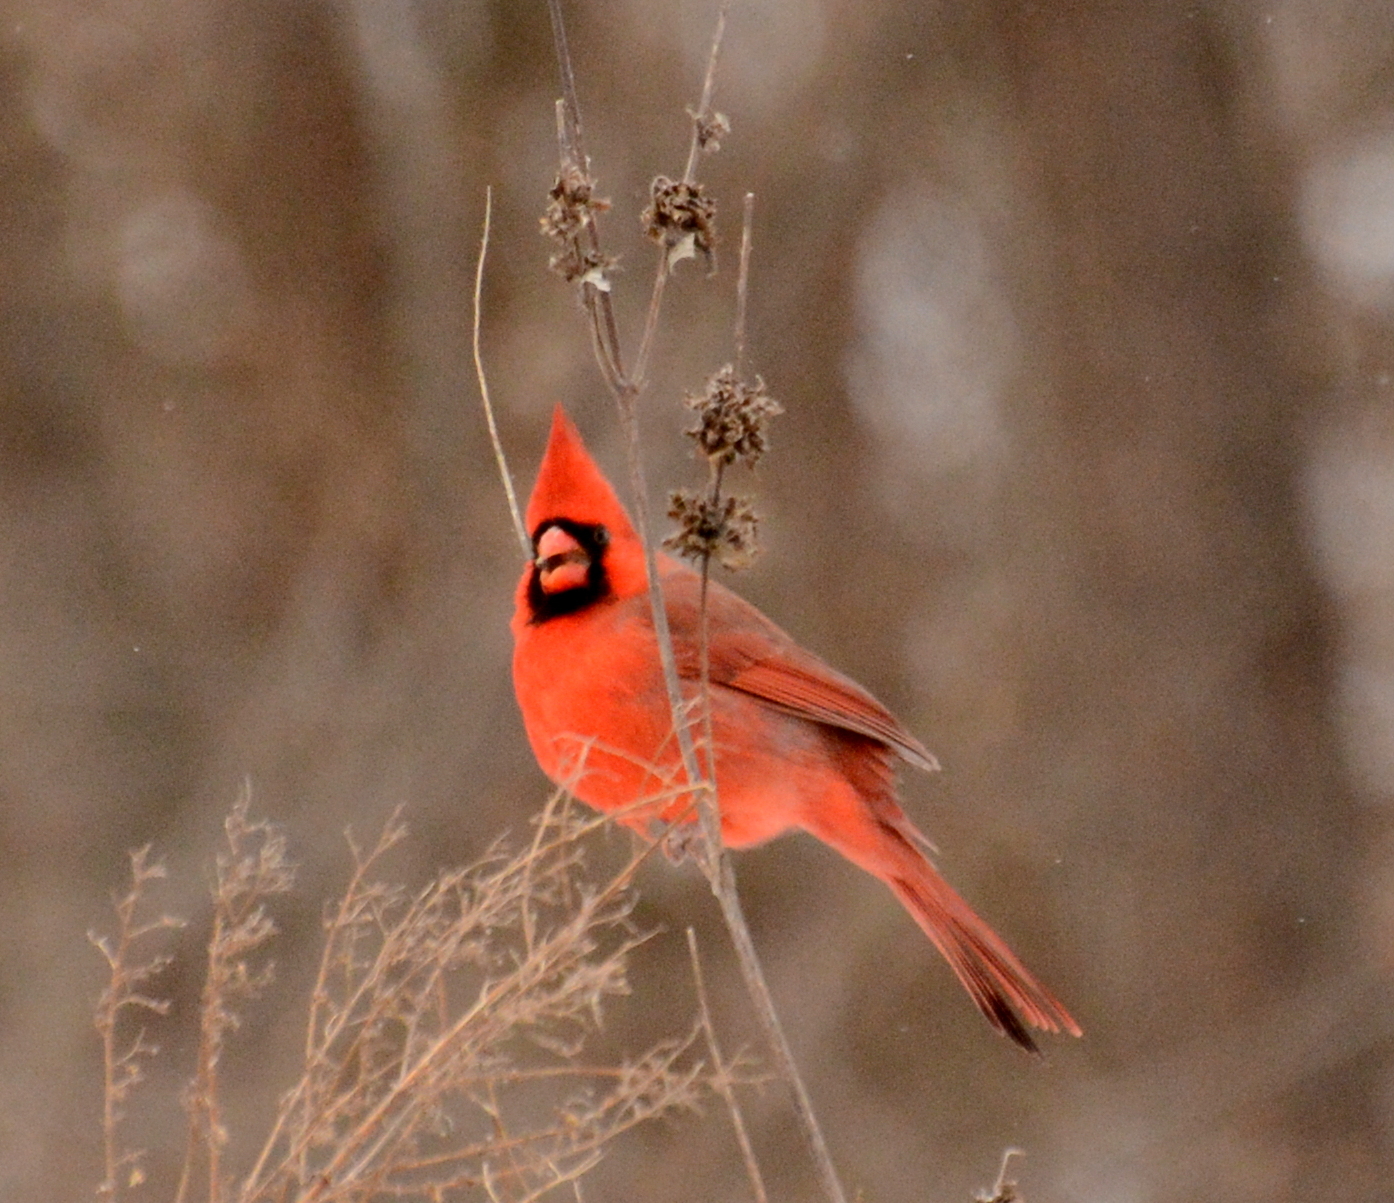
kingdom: Animalia
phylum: Chordata
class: Aves
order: Passeriformes
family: Cardinalidae
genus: Cardinalis
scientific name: Cardinalis cardinalis
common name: Northern cardinal
